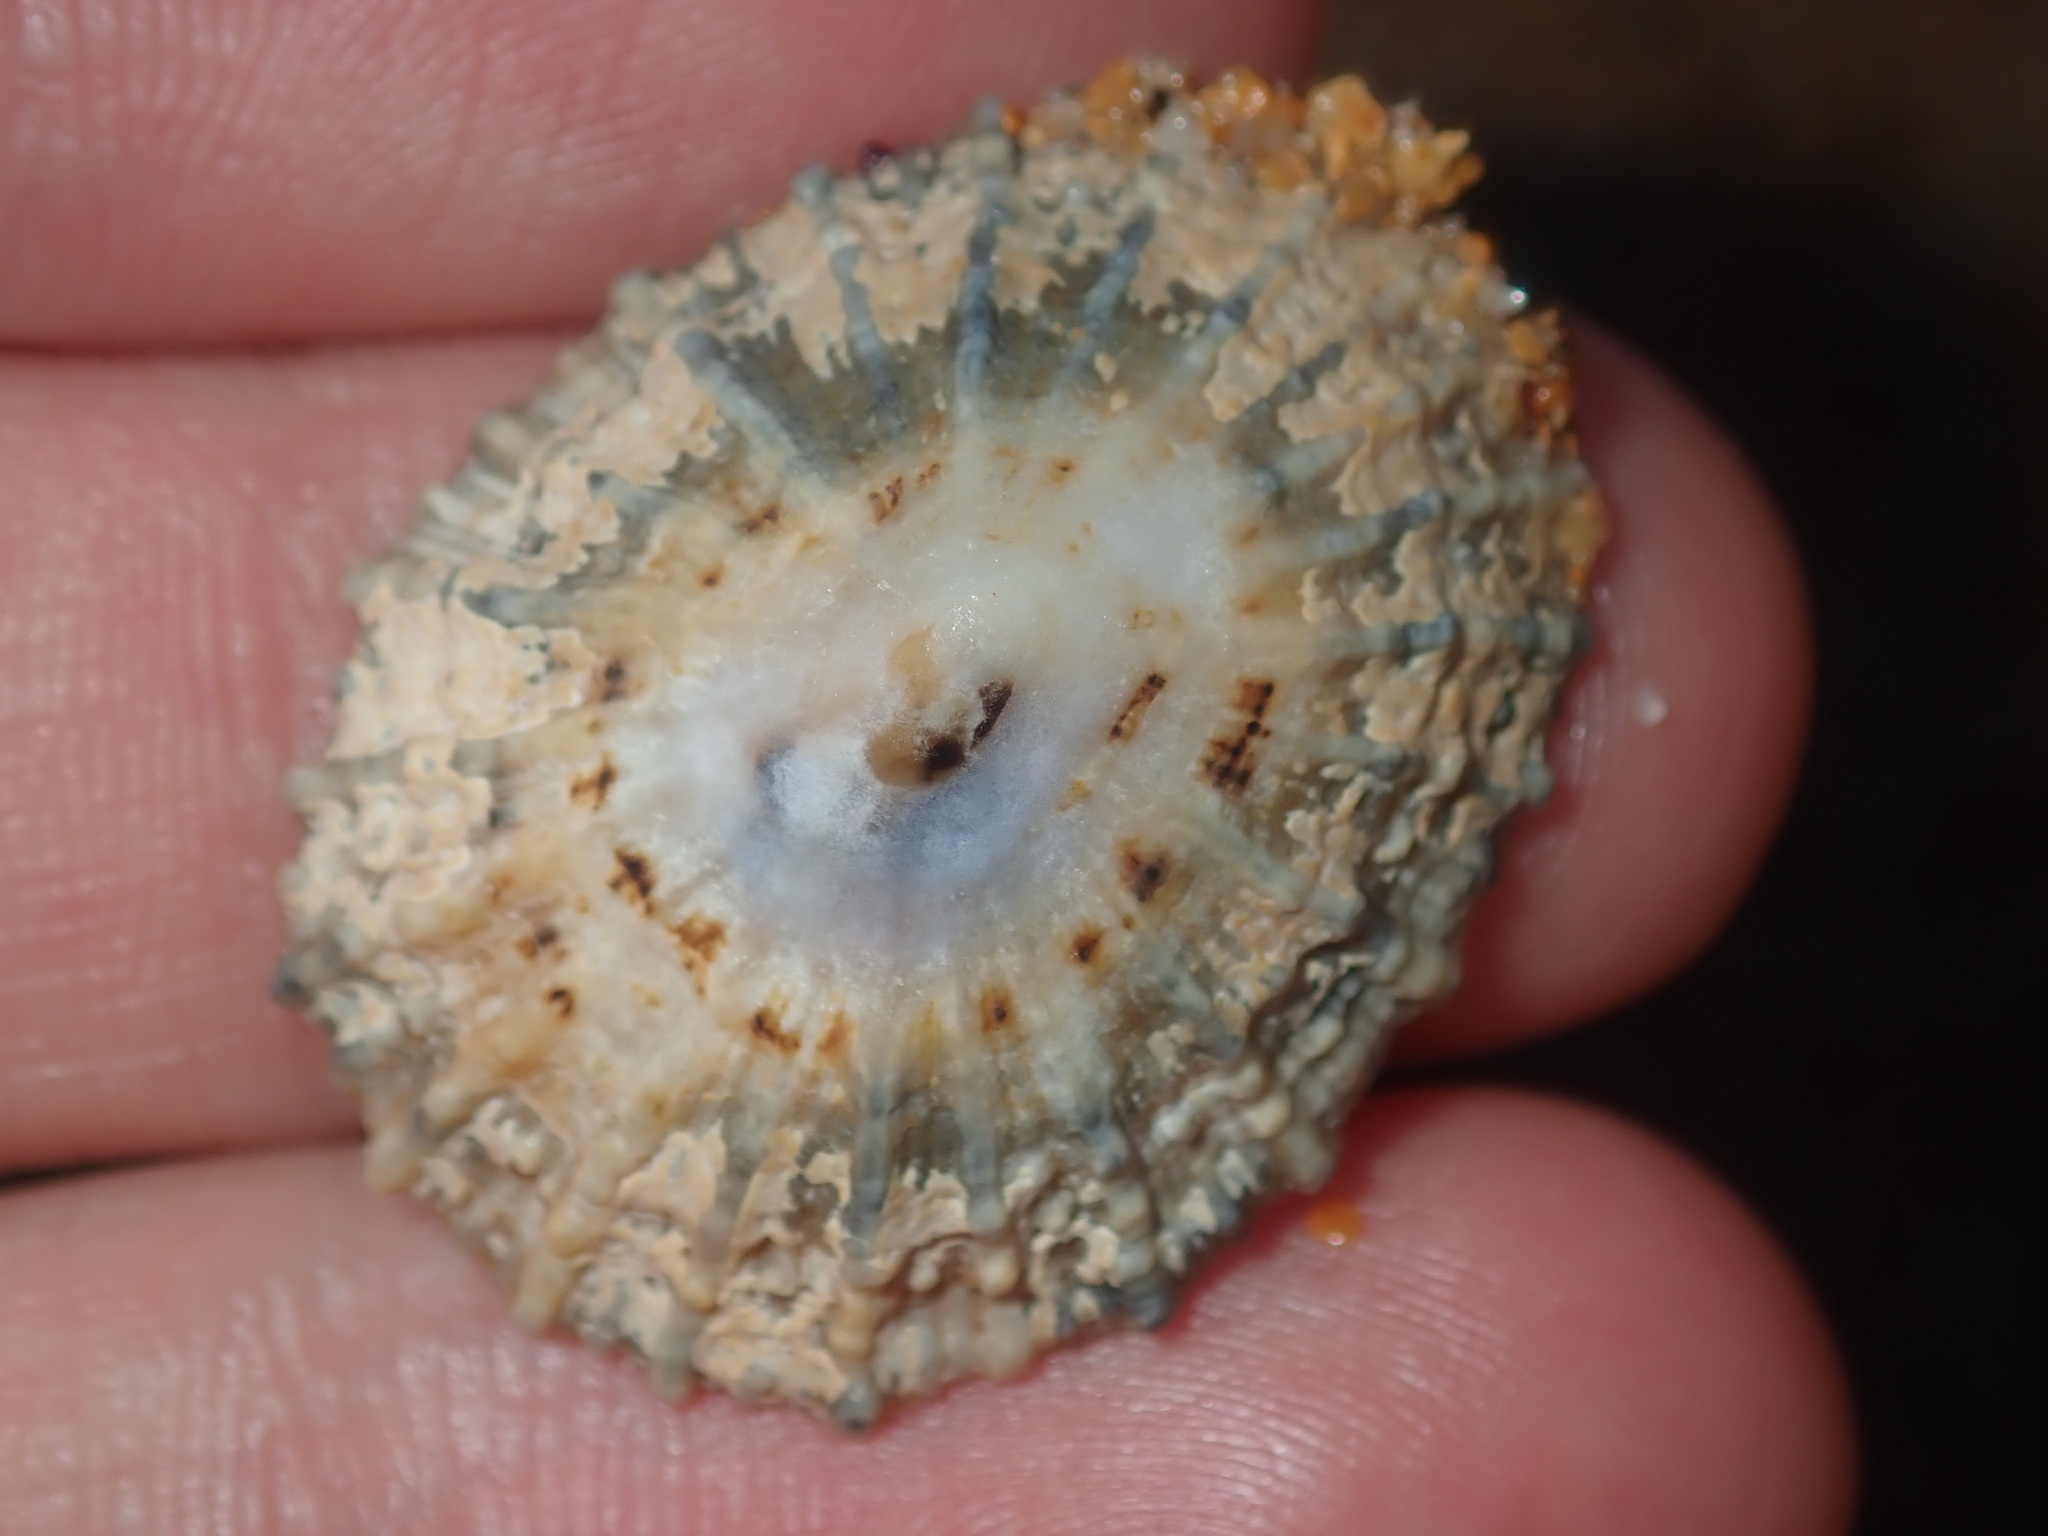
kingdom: Animalia
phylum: Mollusca
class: Gastropoda
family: Patellidae
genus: Scutellastra
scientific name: Scutellastra peronii
